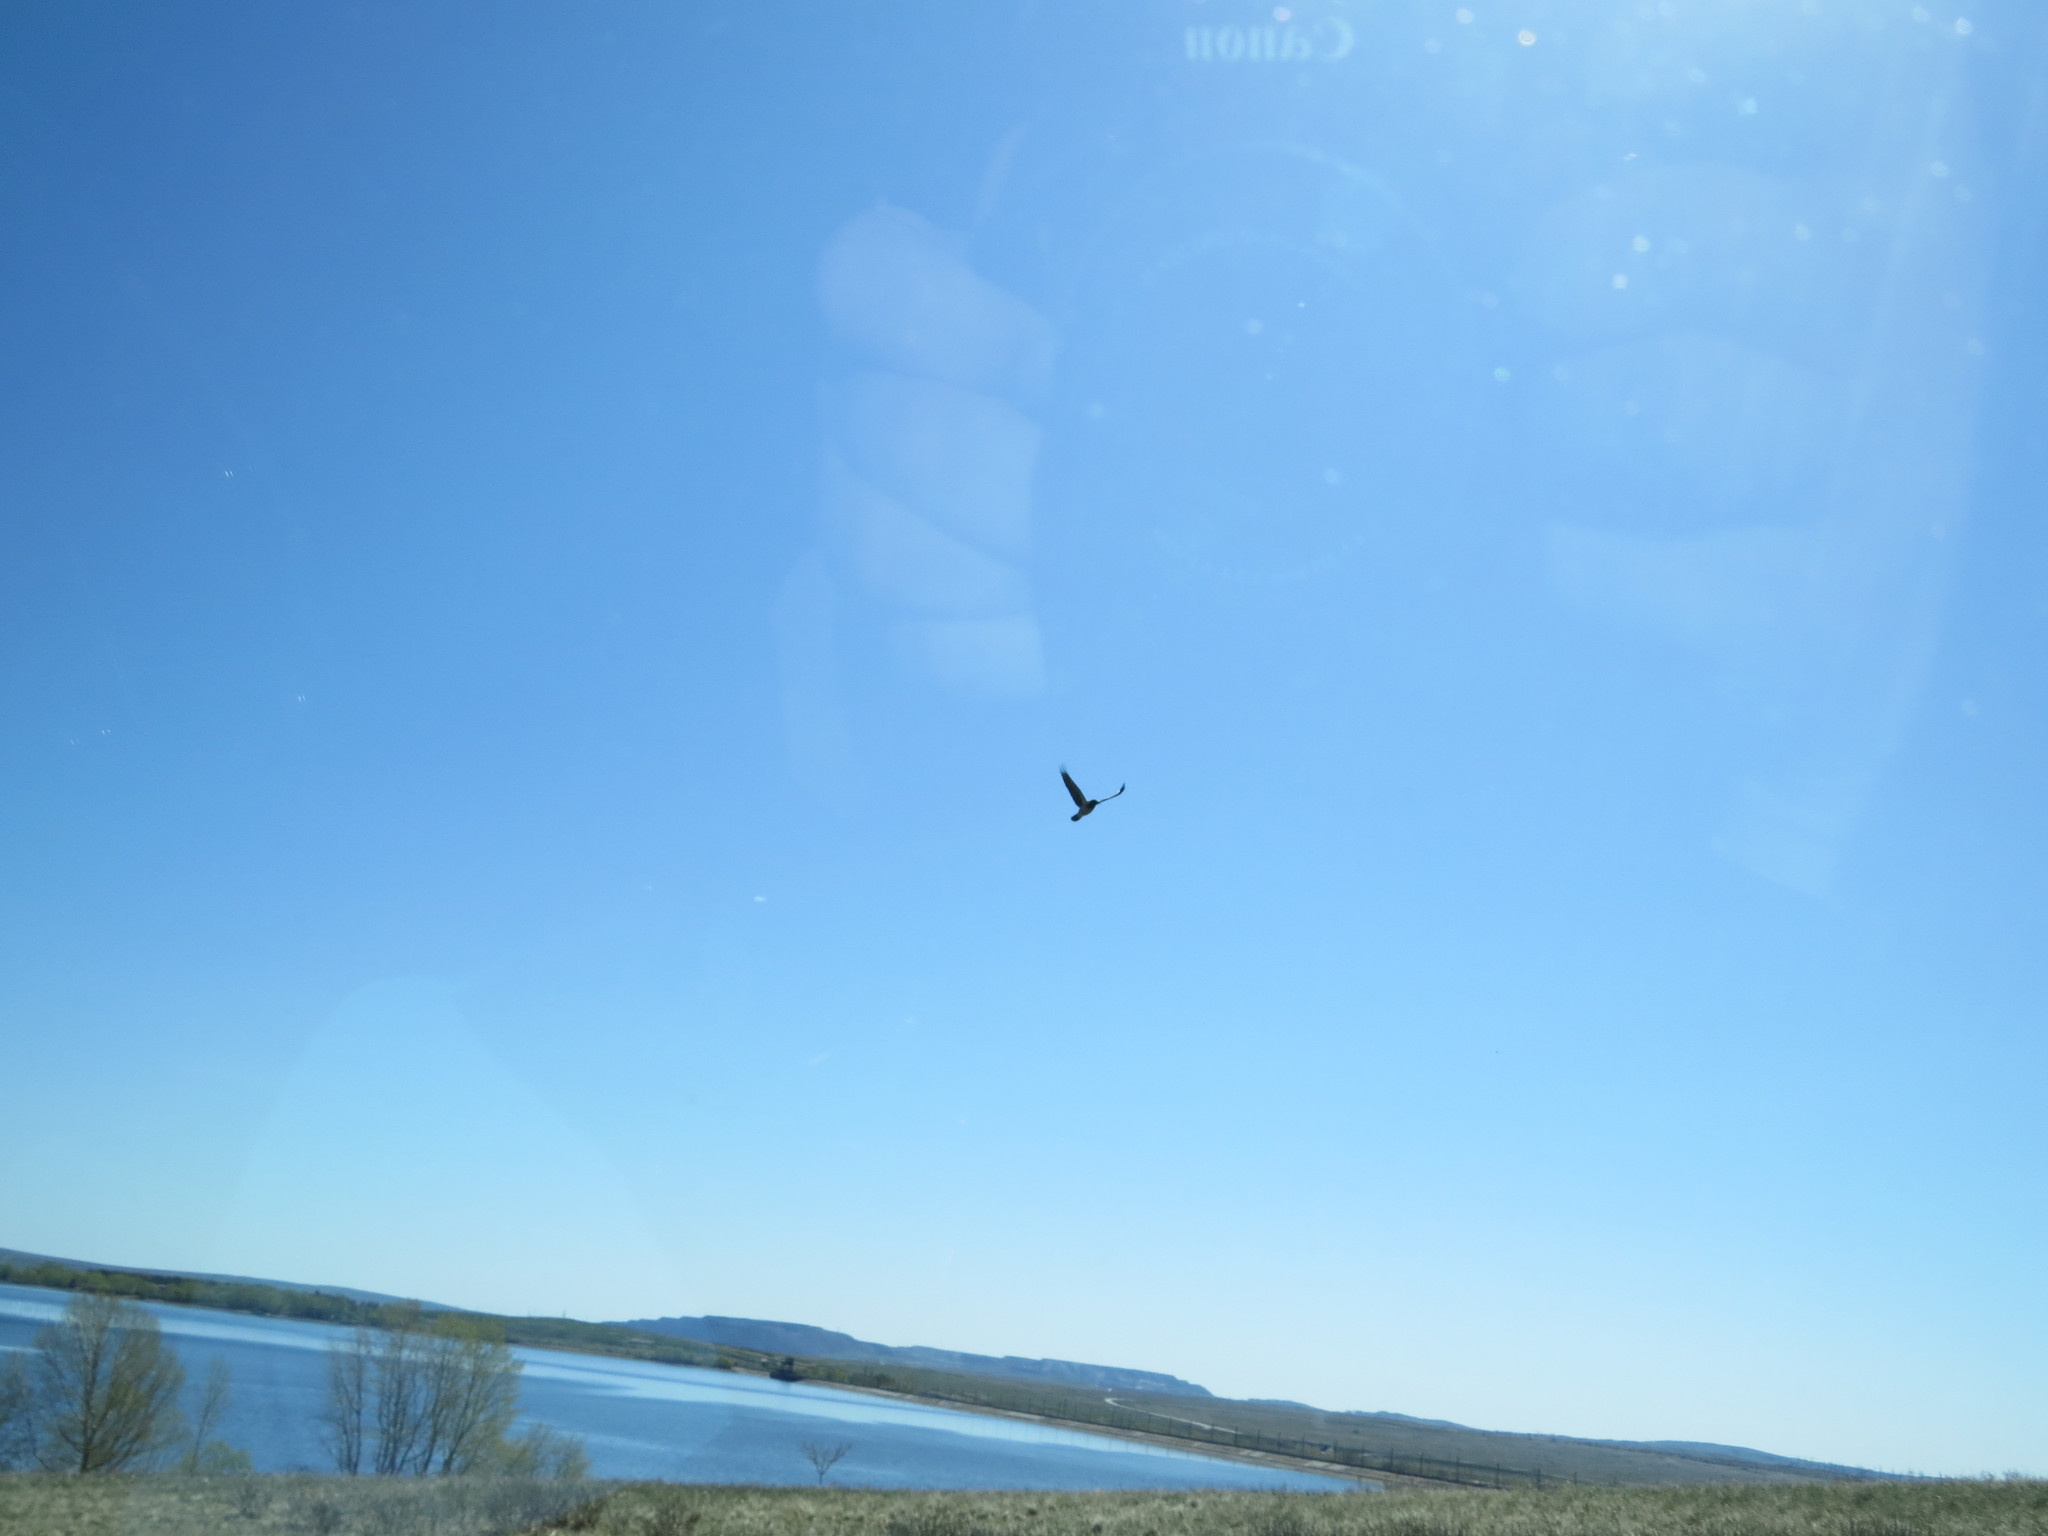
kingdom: Animalia
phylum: Chordata
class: Aves
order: Passeriformes
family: Corvidae
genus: Corvus
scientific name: Corvus cornix
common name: Hooded crow
